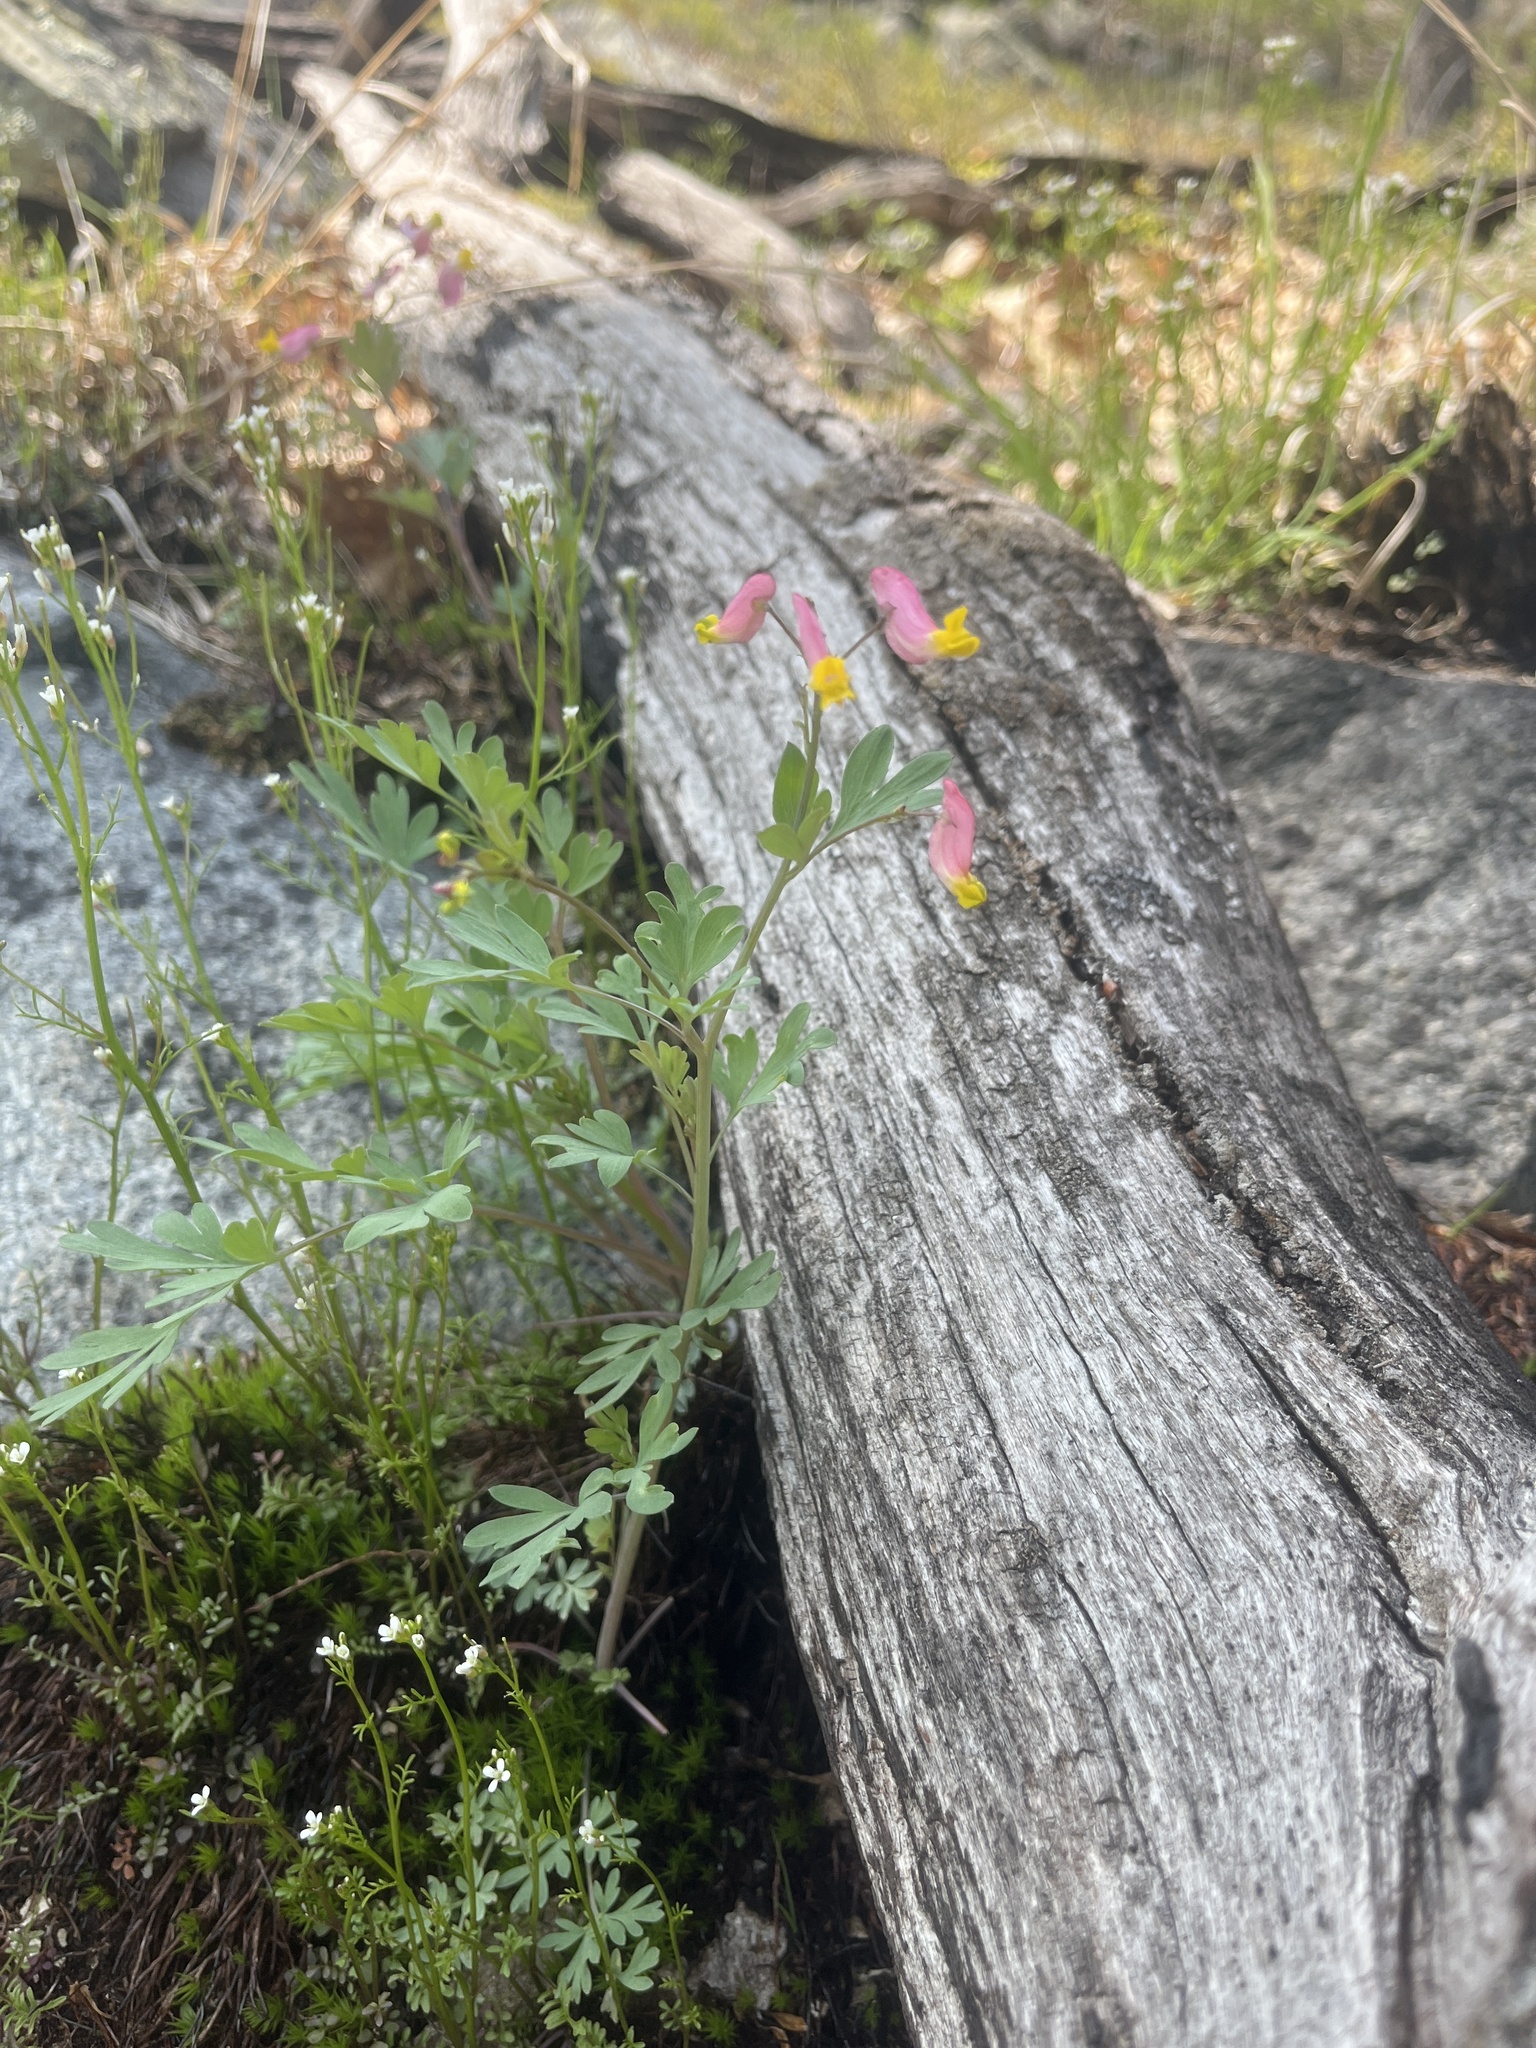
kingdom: Plantae
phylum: Tracheophyta
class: Magnoliopsida
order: Ranunculales
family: Papaveraceae
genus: Capnoides
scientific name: Capnoides sempervirens
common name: Rock harlequin
